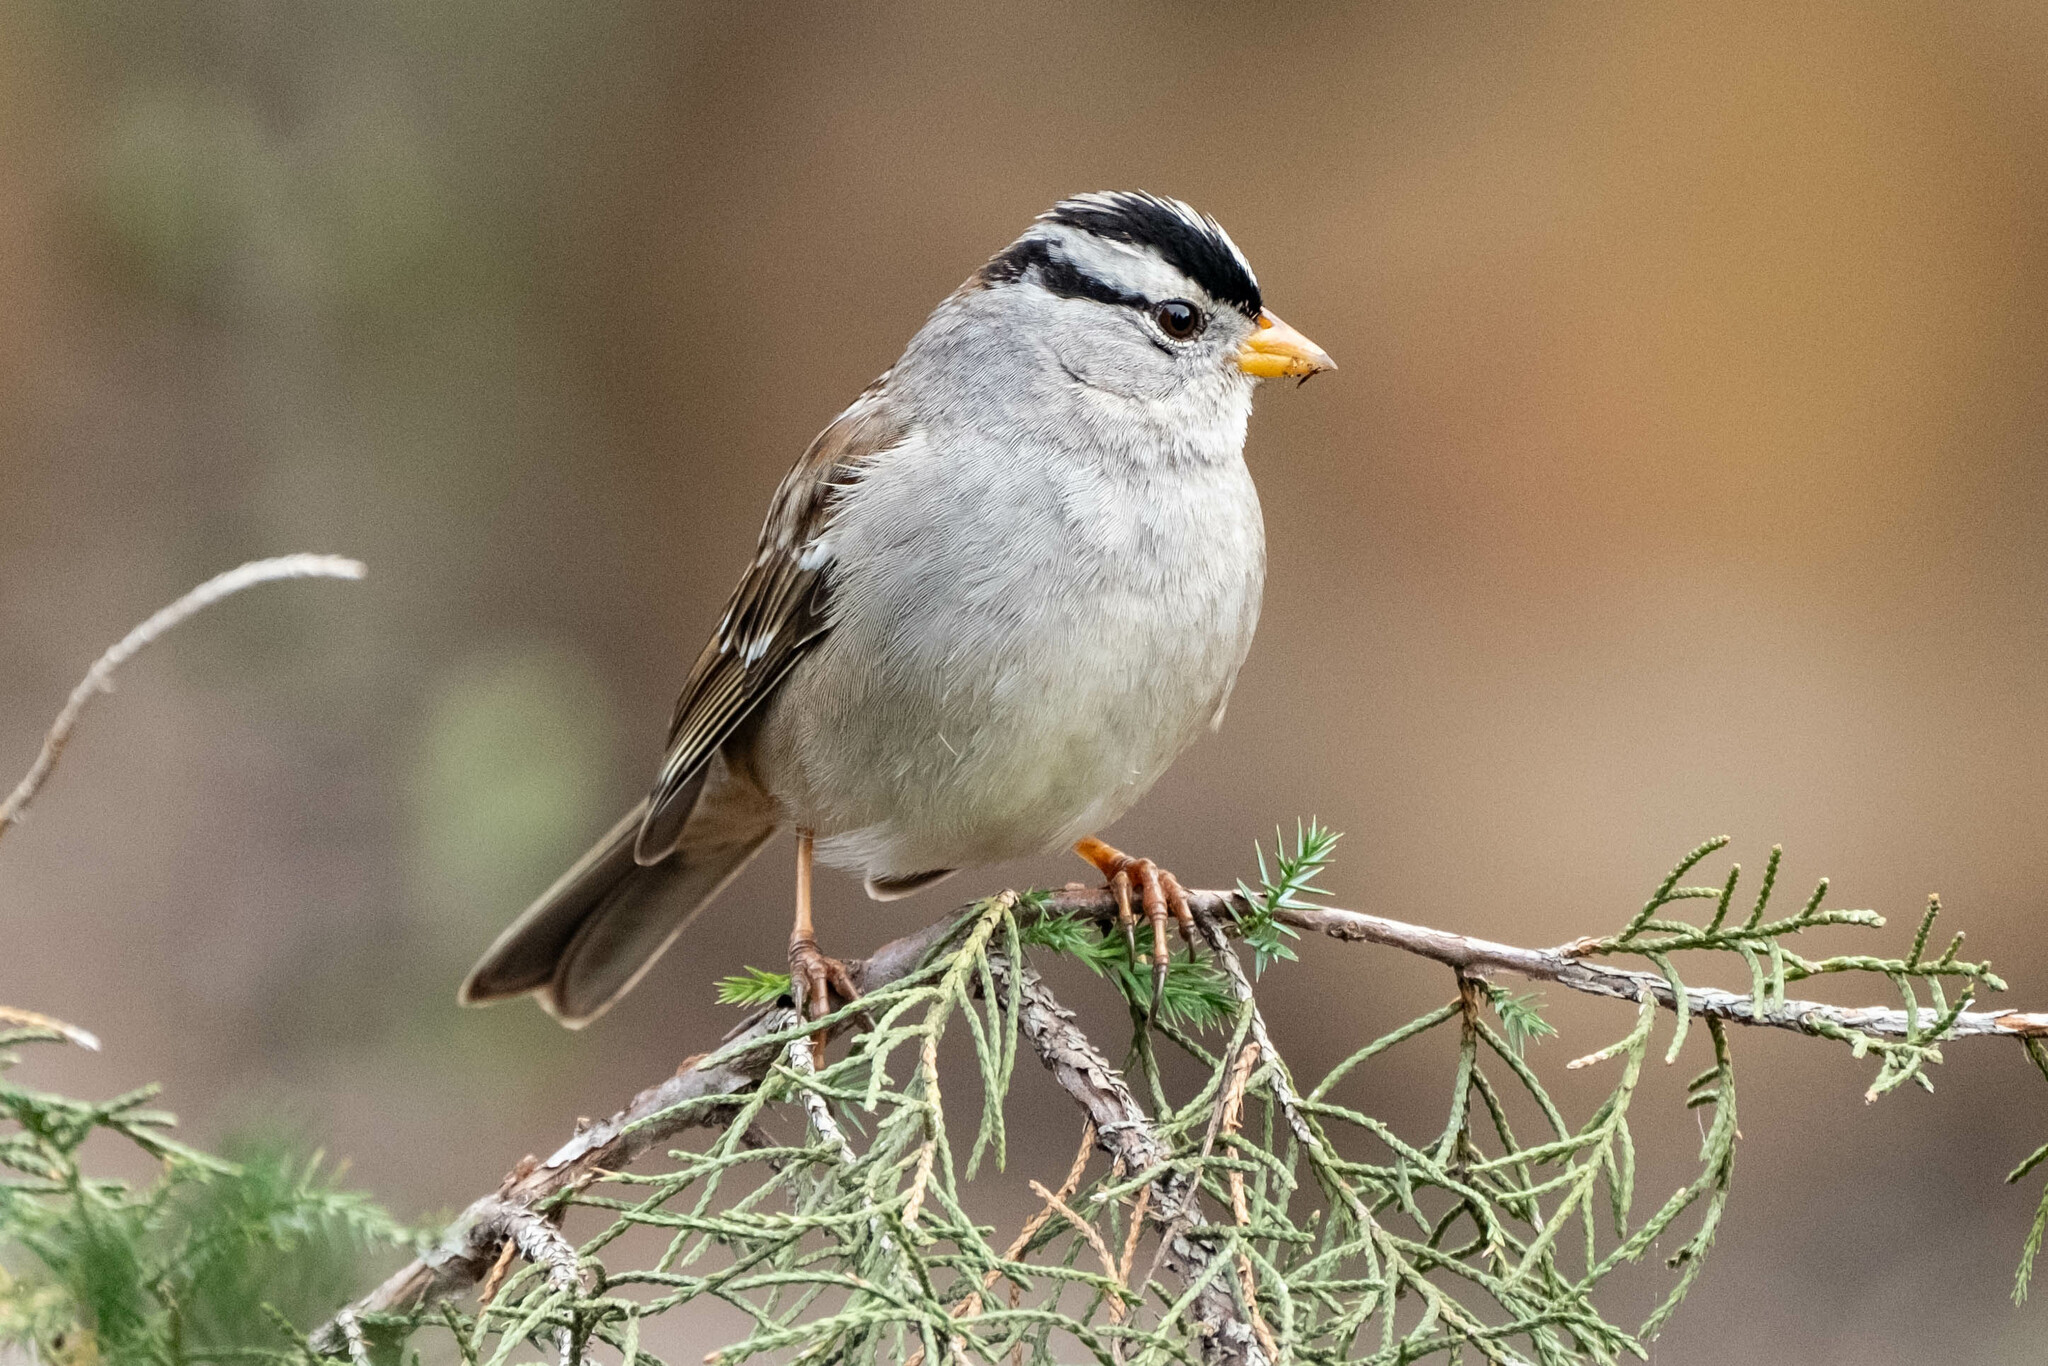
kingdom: Animalia
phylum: Chordata
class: Aves
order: Passeriformes
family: Passerellidae
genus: Zonotrichia
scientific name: Zonotrichia leucophrys
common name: White-crowned sparrow
